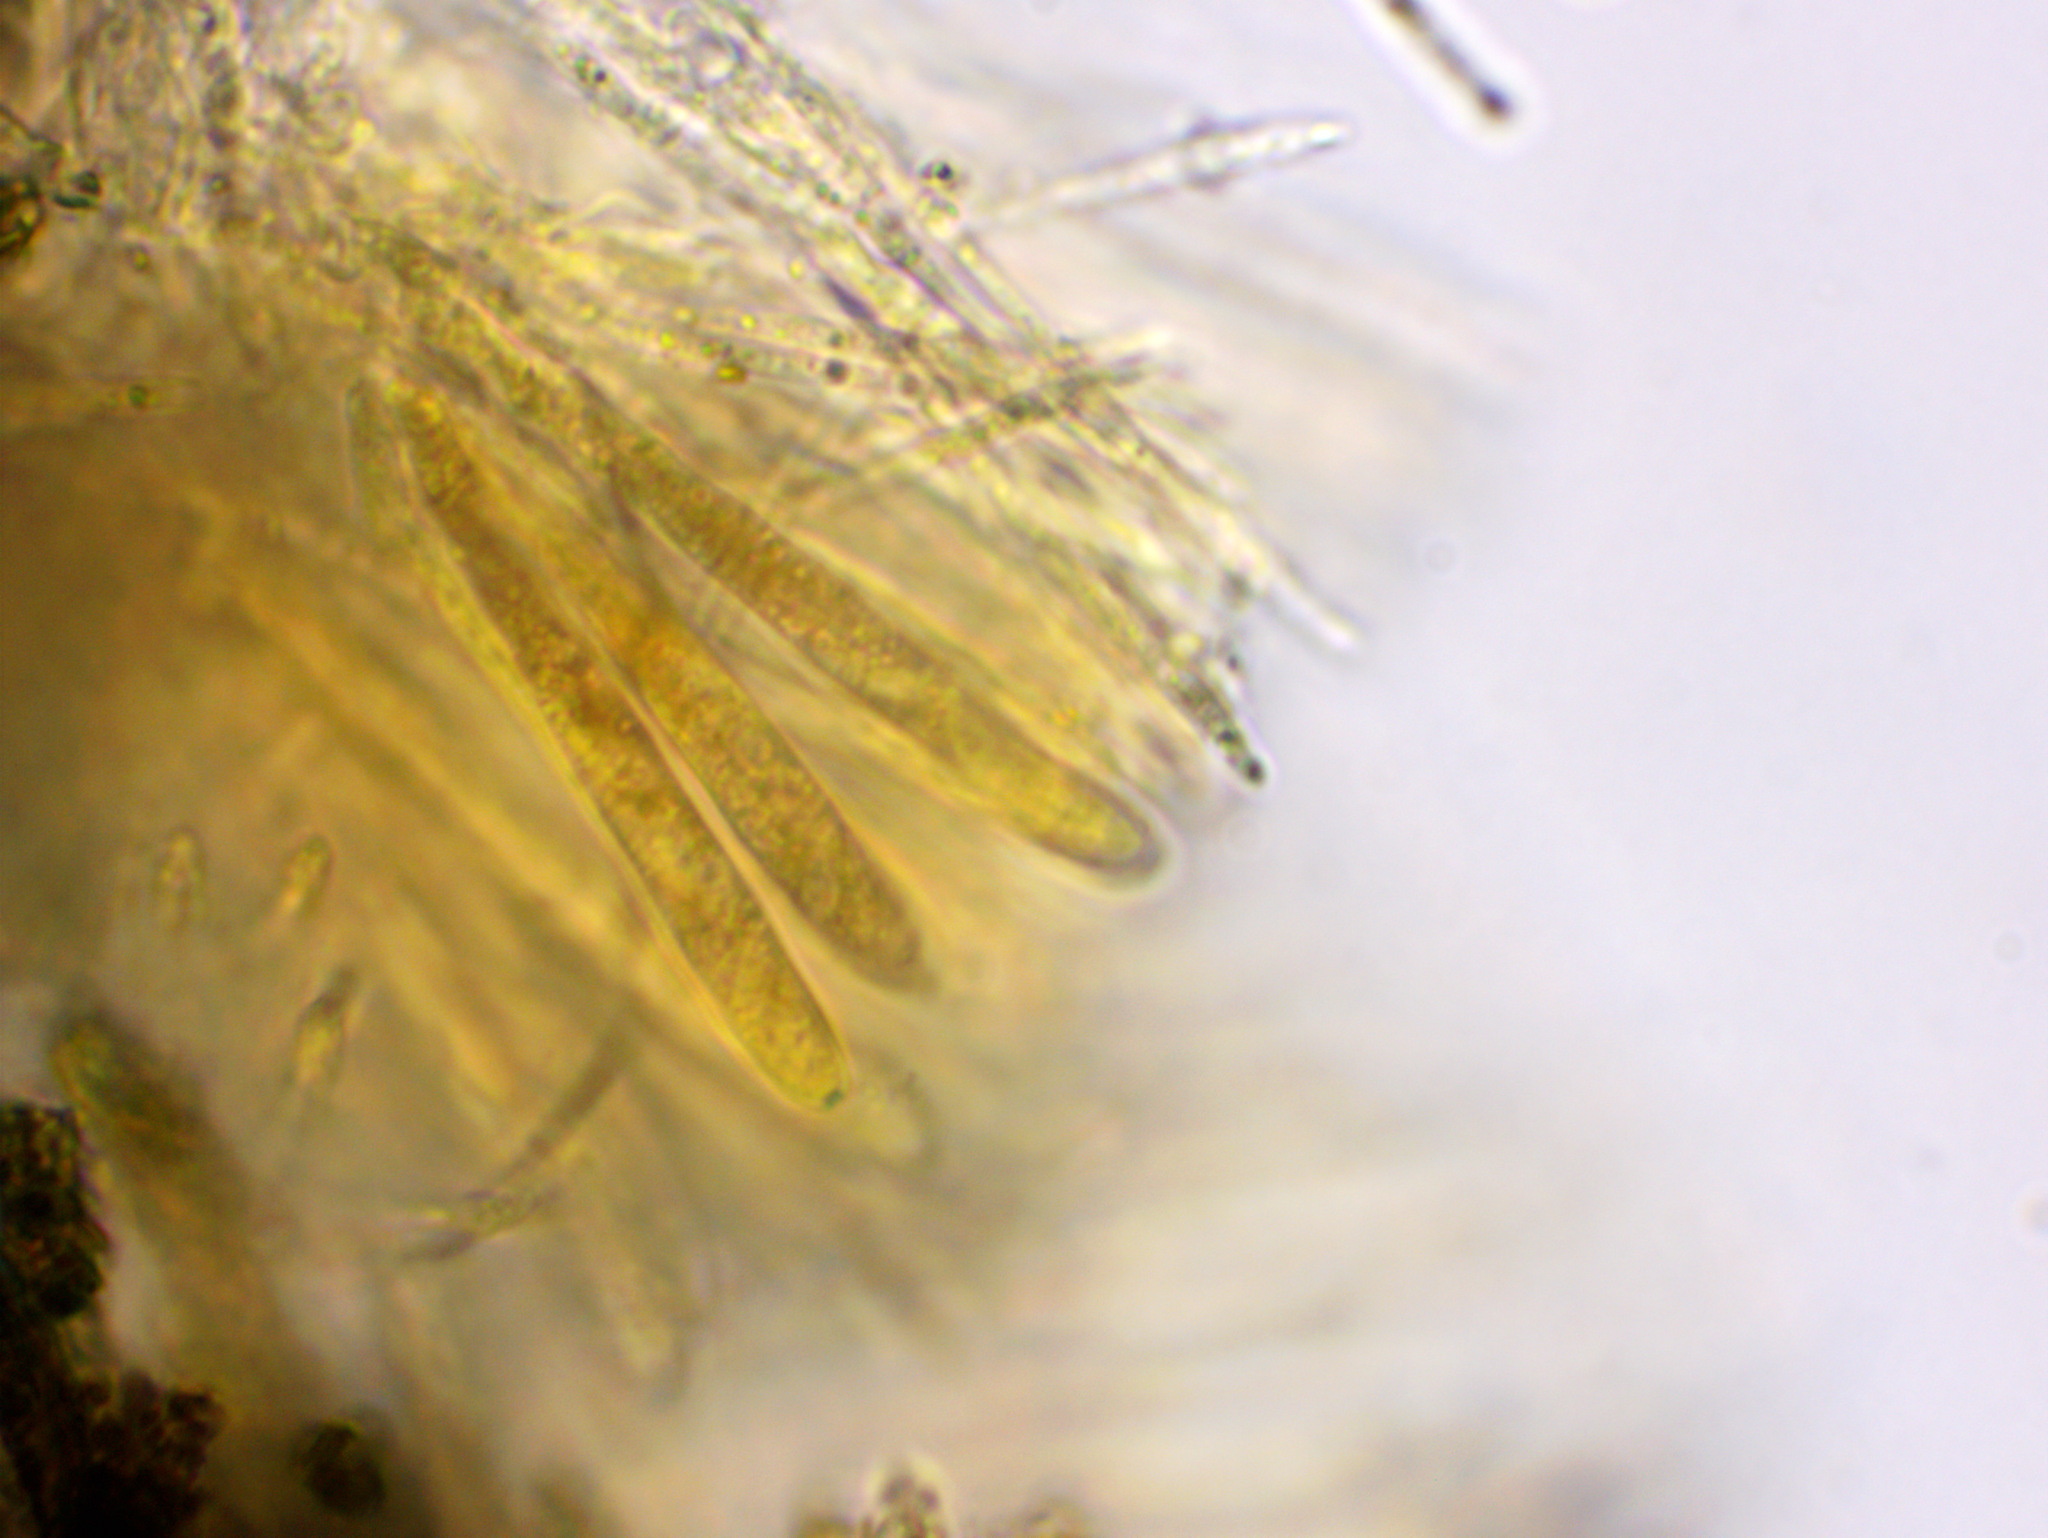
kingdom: Fungi
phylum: Ascomycota
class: Leotiomycetes
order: Helotiales
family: Lachnaceae
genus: Neodasyscypha
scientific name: Neodasyscypha cerina
